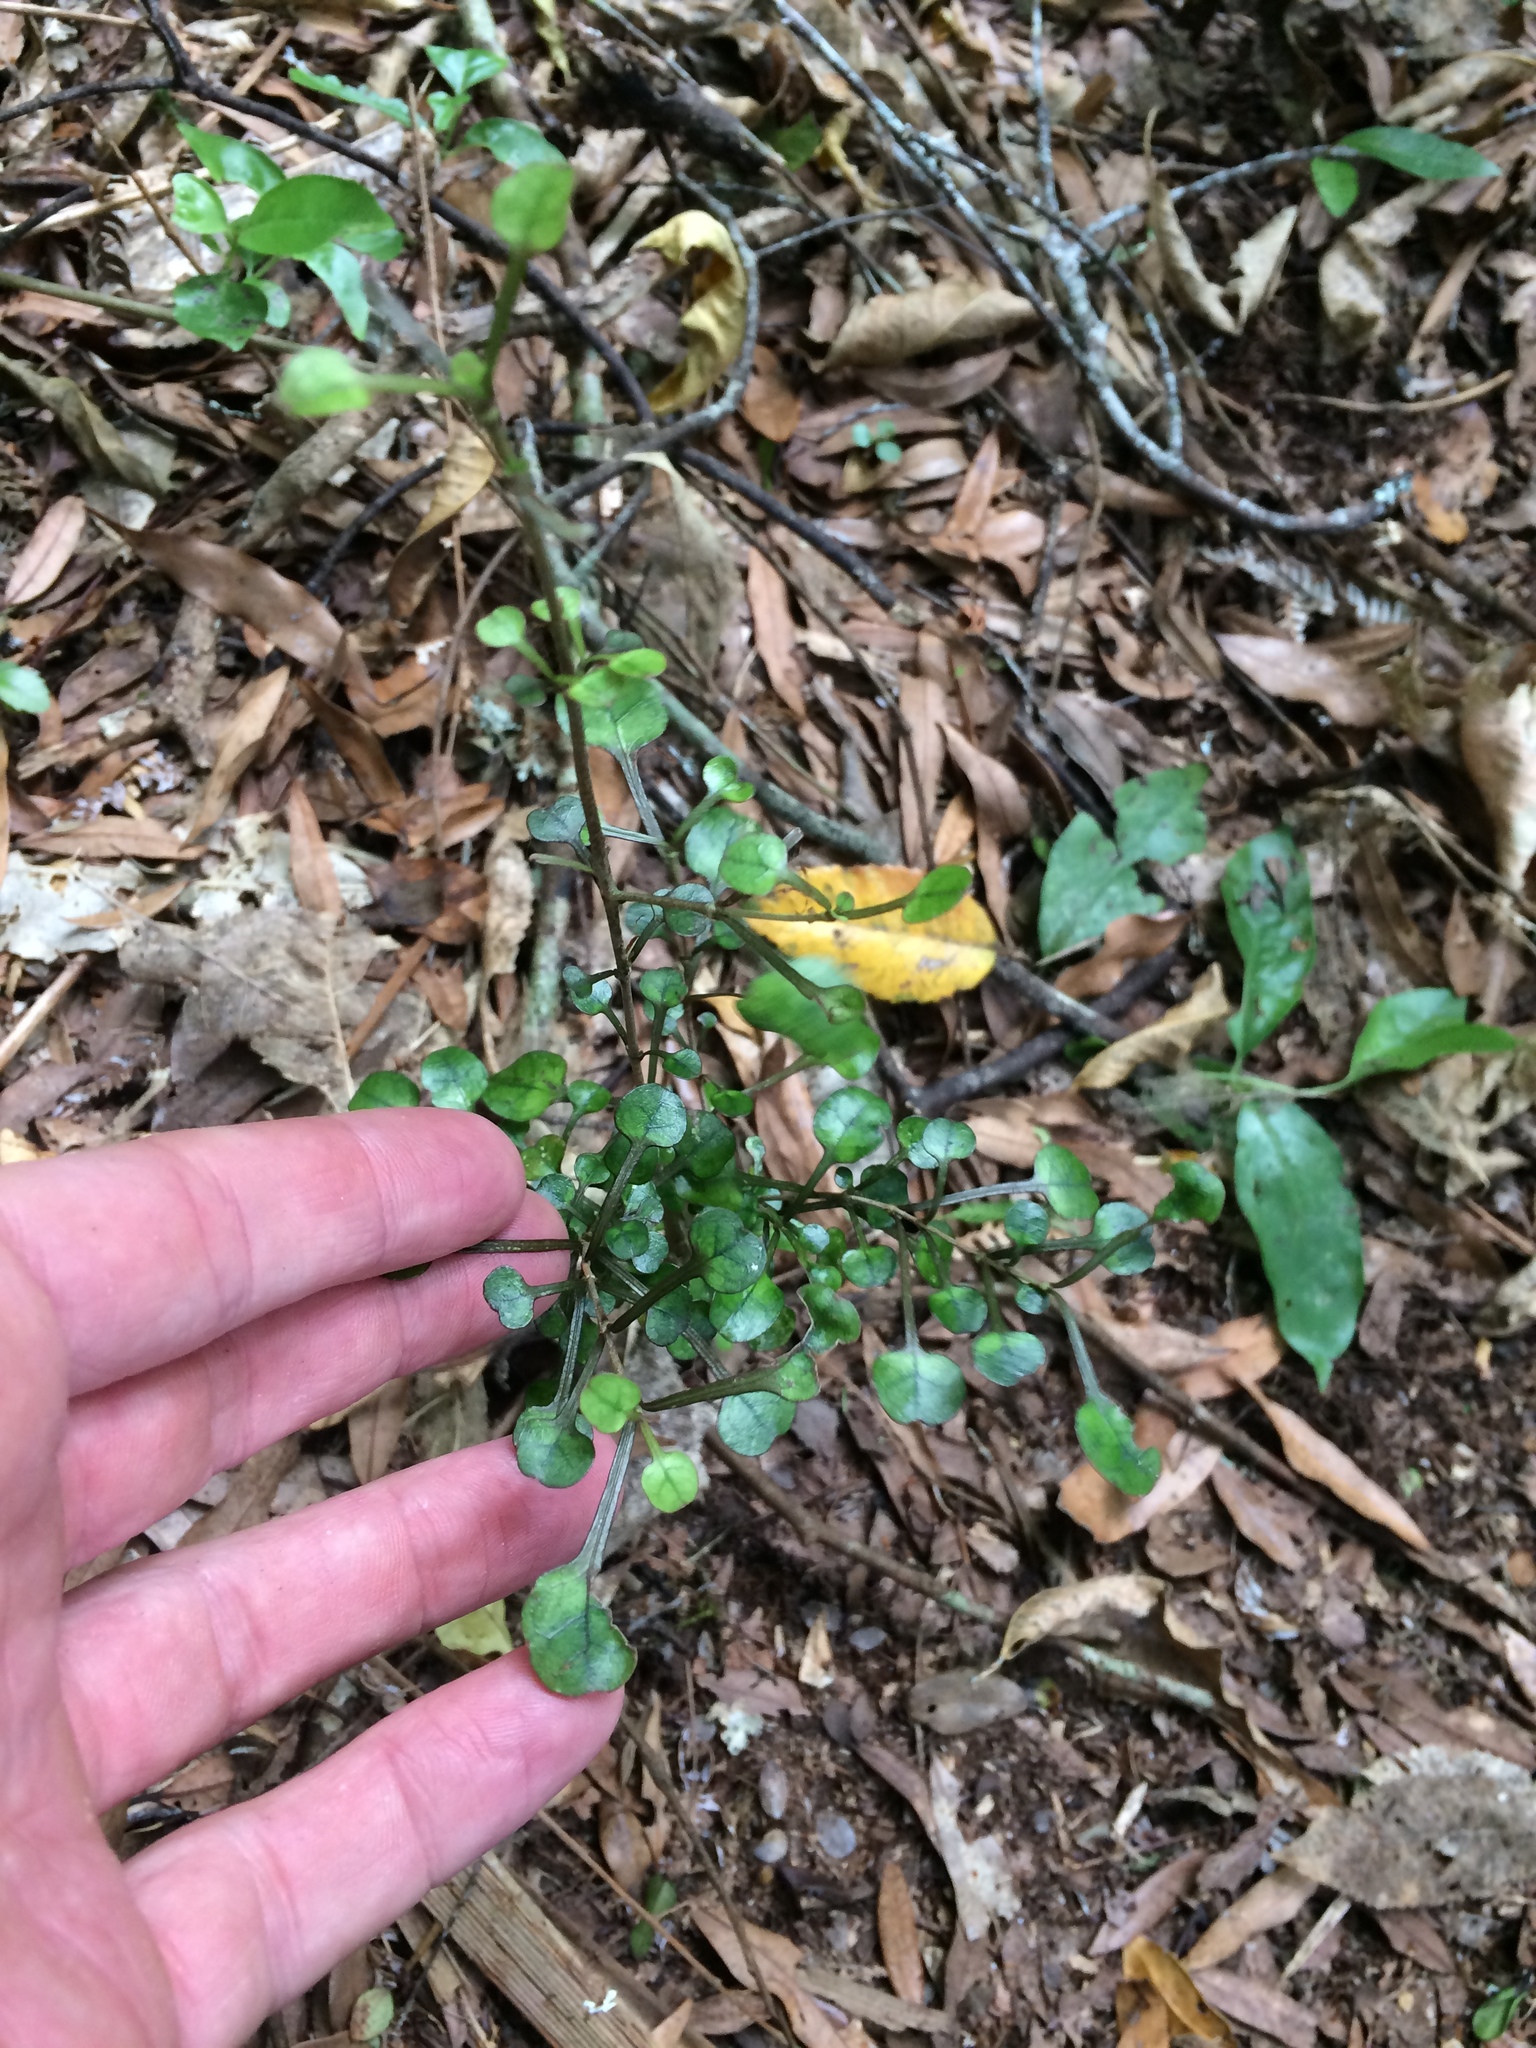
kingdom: Plantae
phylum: Tracheophyta
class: Magnoliopsida
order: Gentianales
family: Rubiaceae
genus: Coprosma
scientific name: Coprosma spathulata
